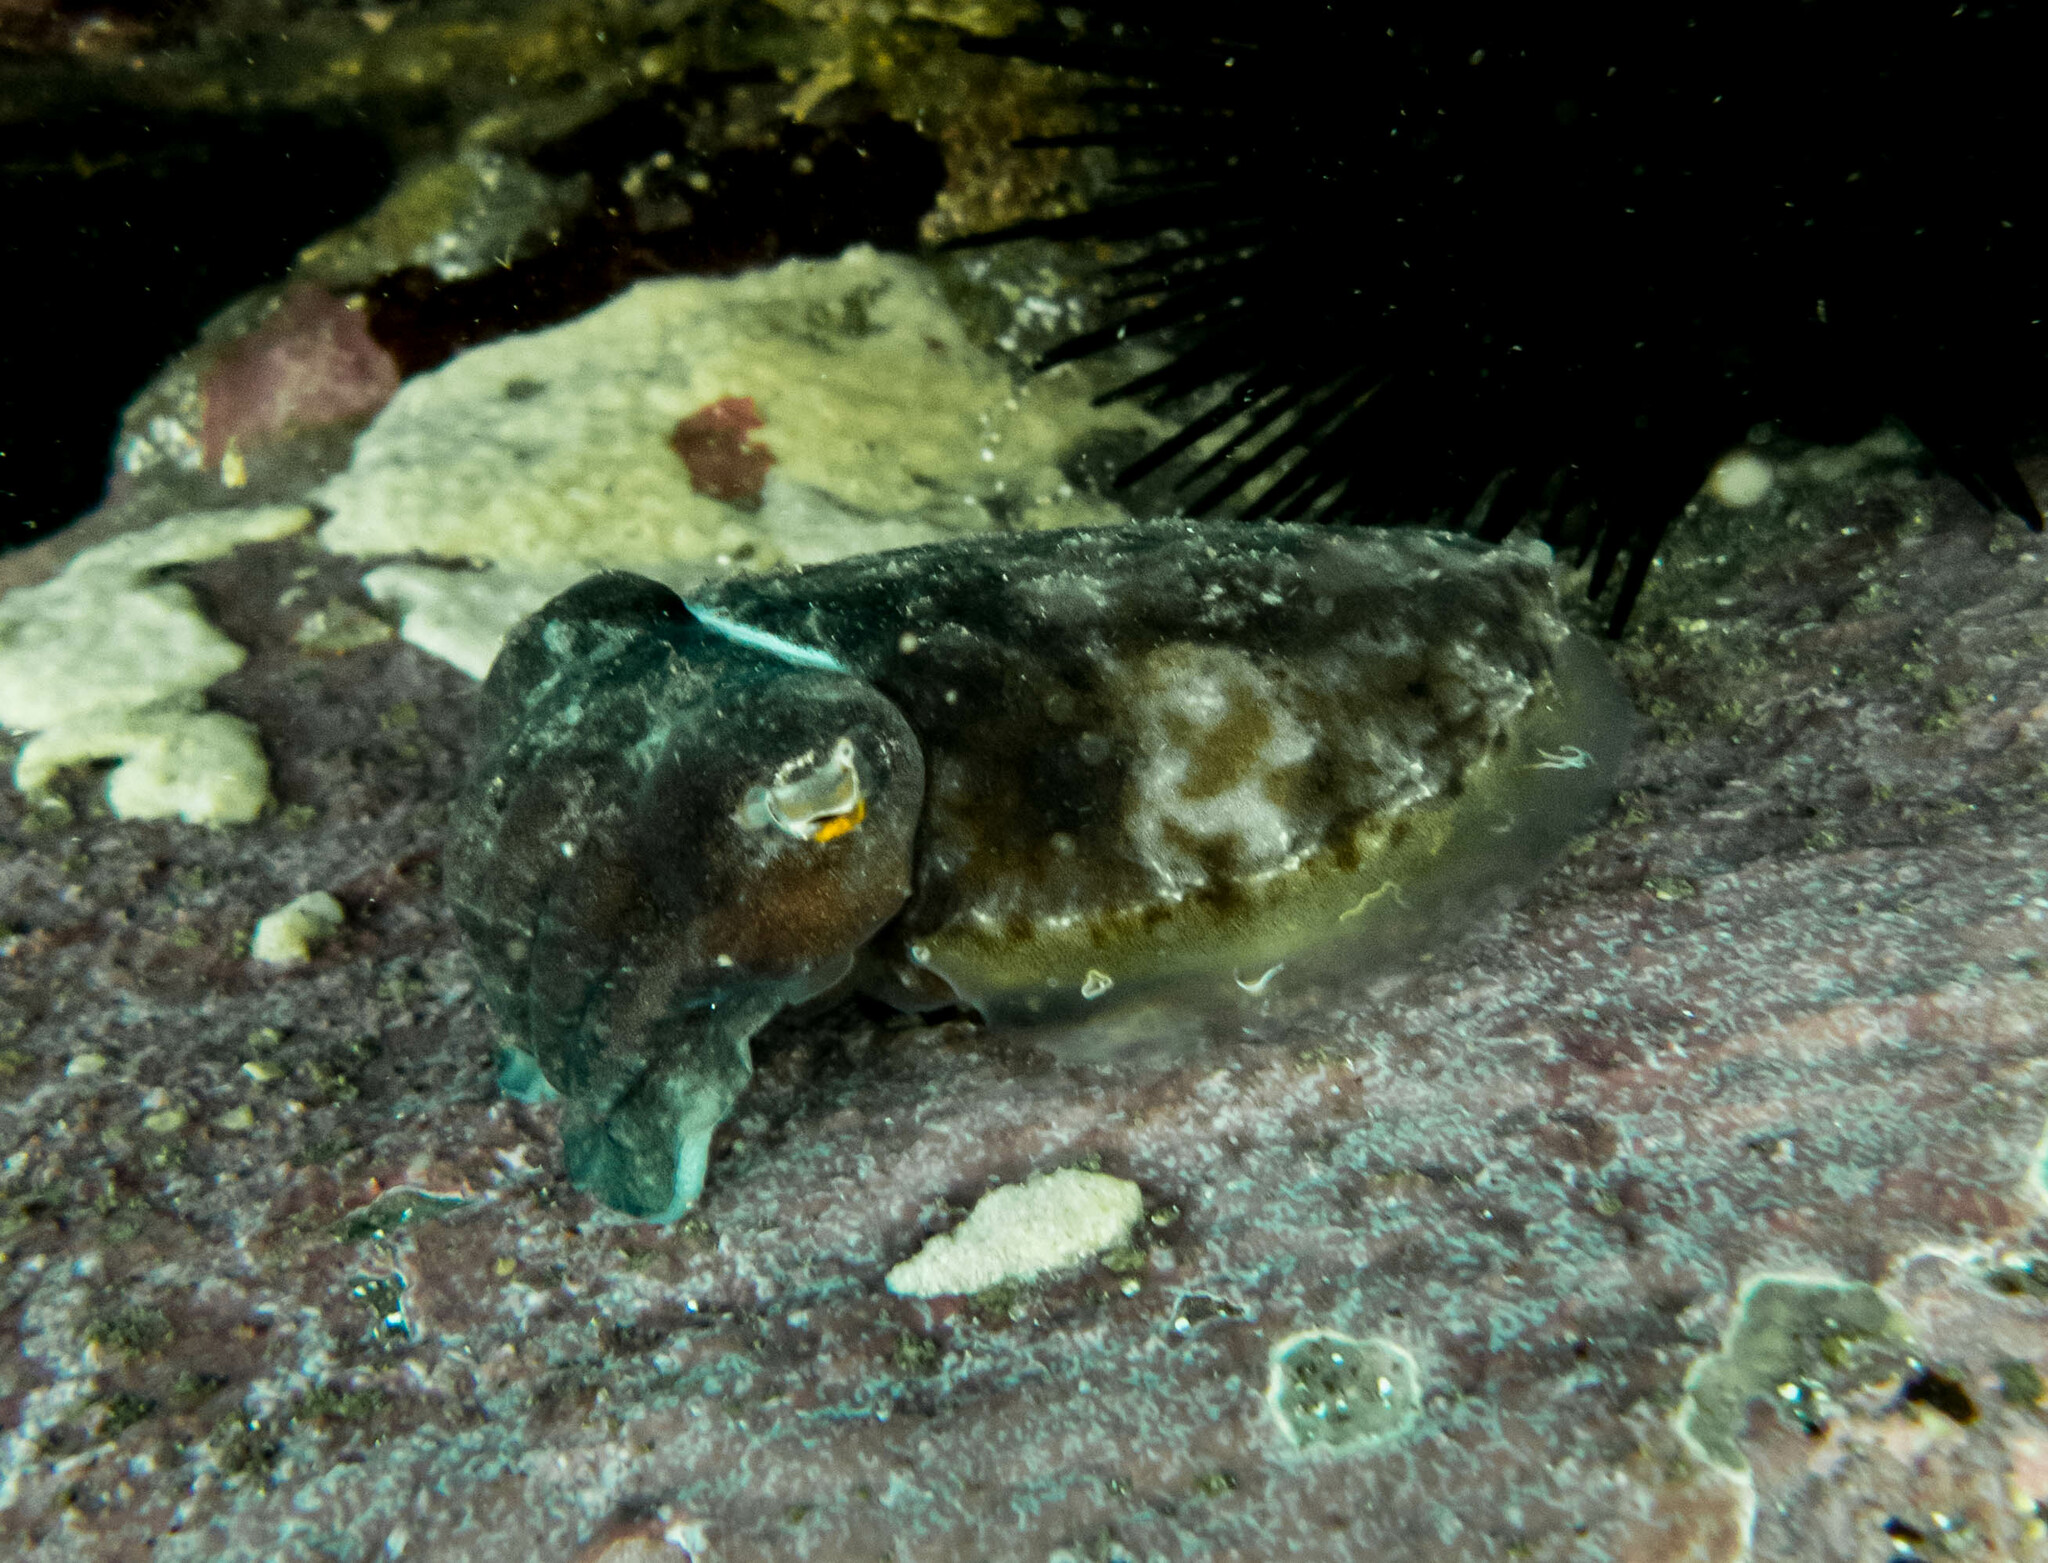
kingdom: Animalia
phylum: Mollusca
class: Cephalopoda
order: Sepiida
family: Sepiidae
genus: Ascarosepion
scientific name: Ascarosepion mestus
